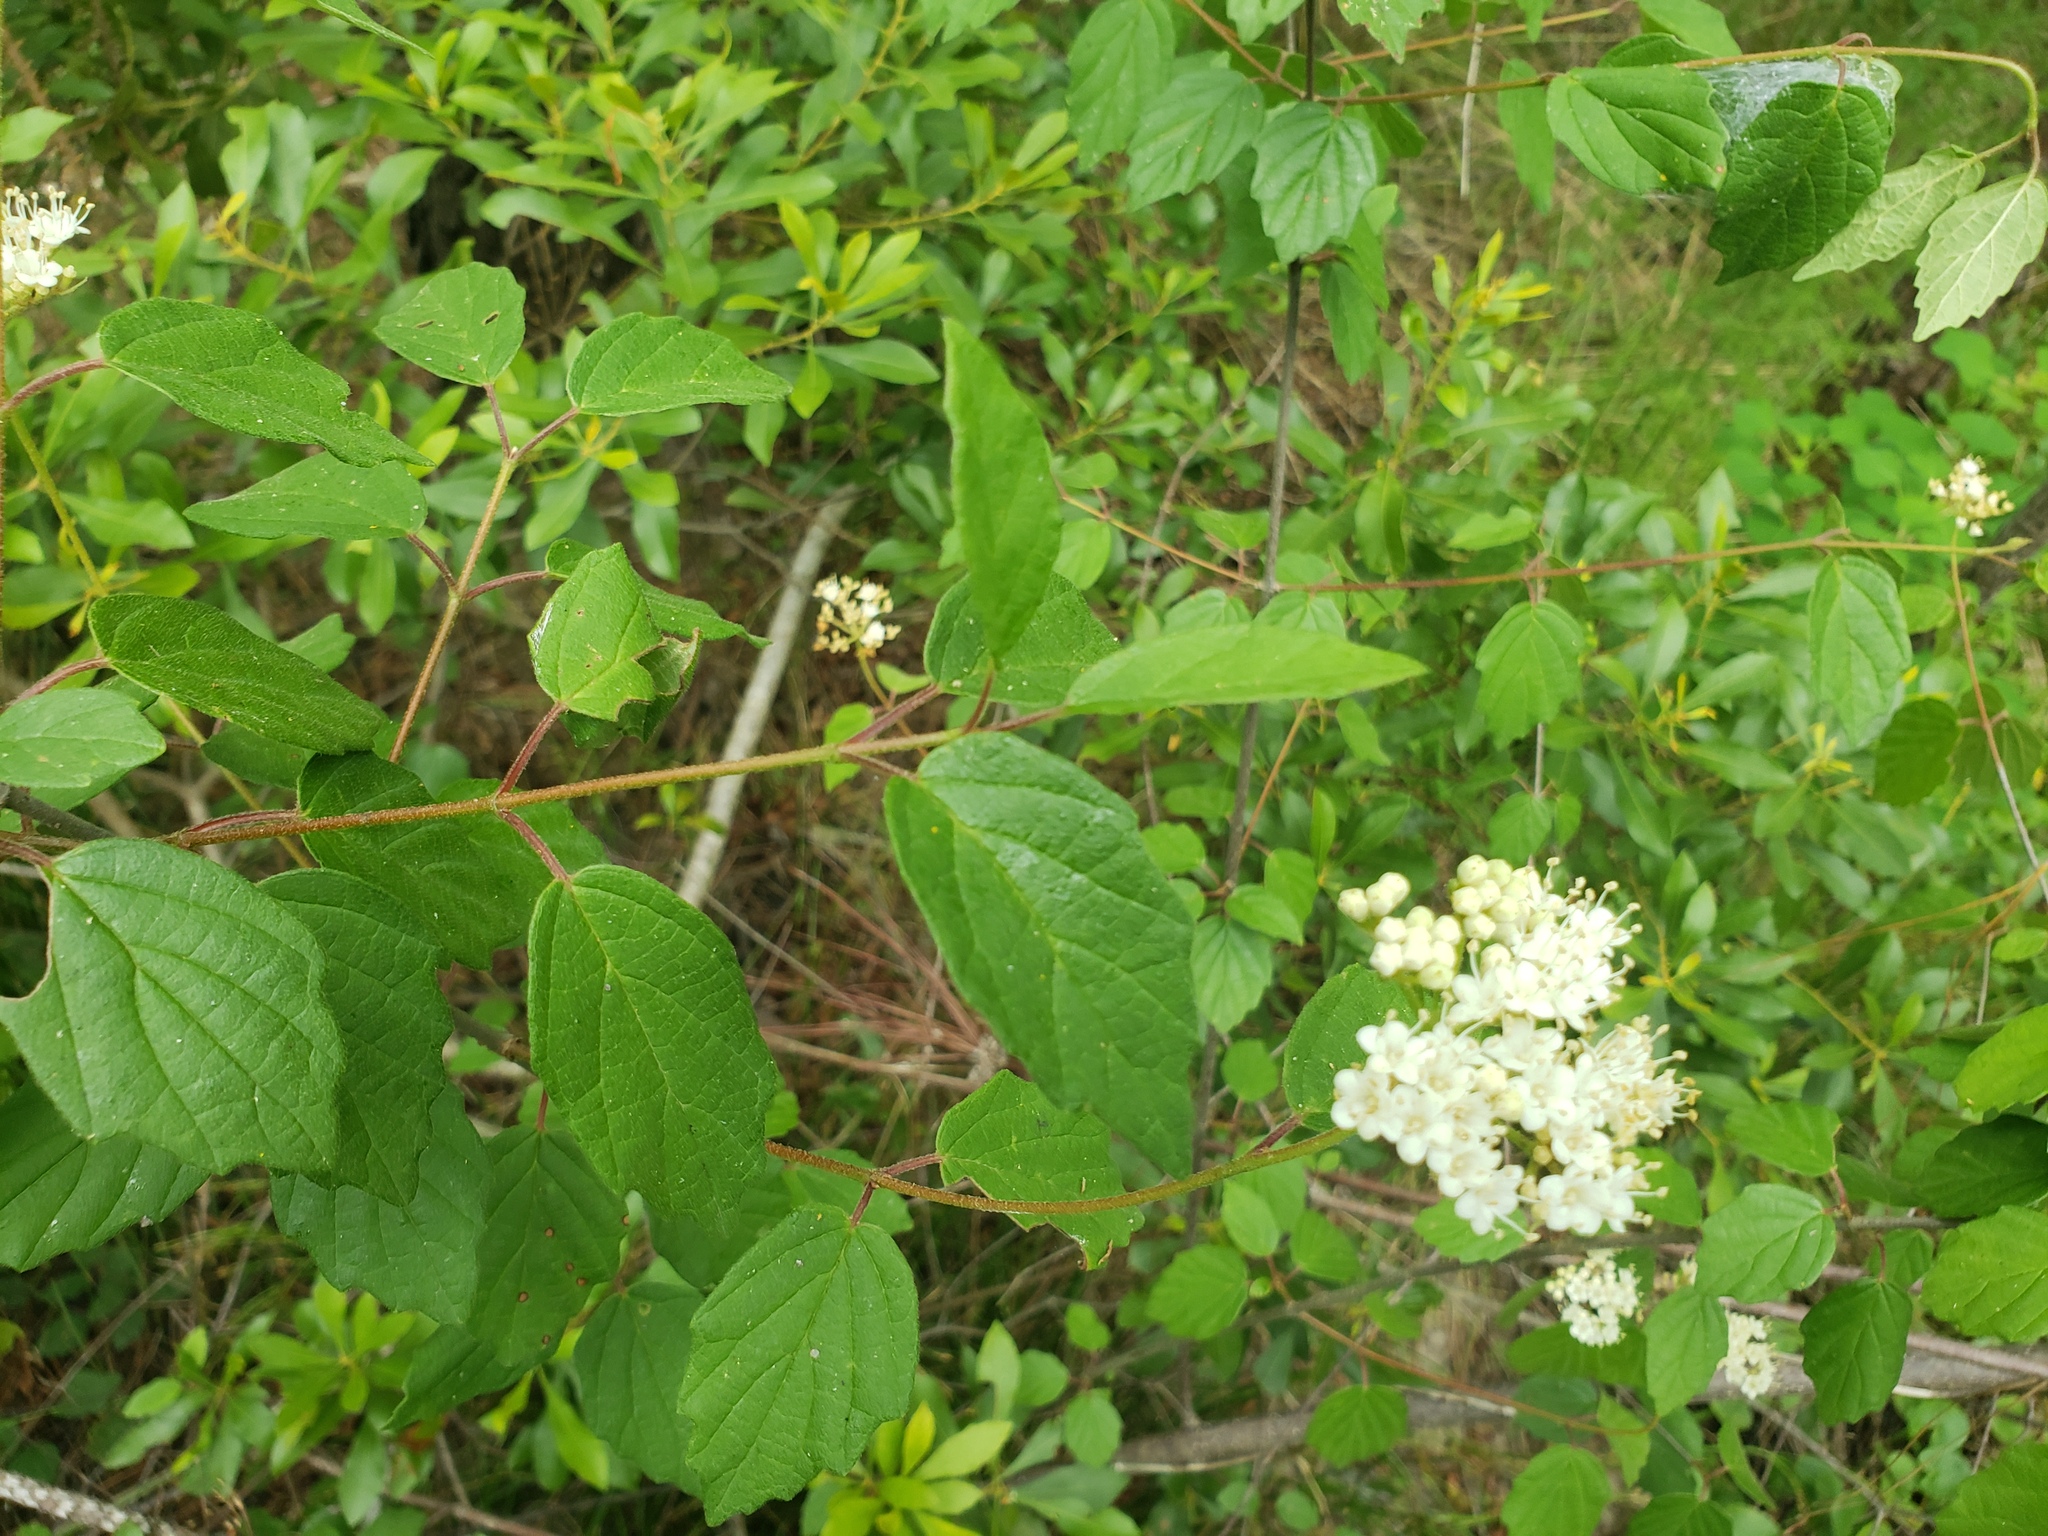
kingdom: Plantae
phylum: Tracheophyta
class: Magnoliopsida
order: Dipsacales
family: Viburnaceae
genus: Viburnum
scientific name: Viburnum scabrellum
